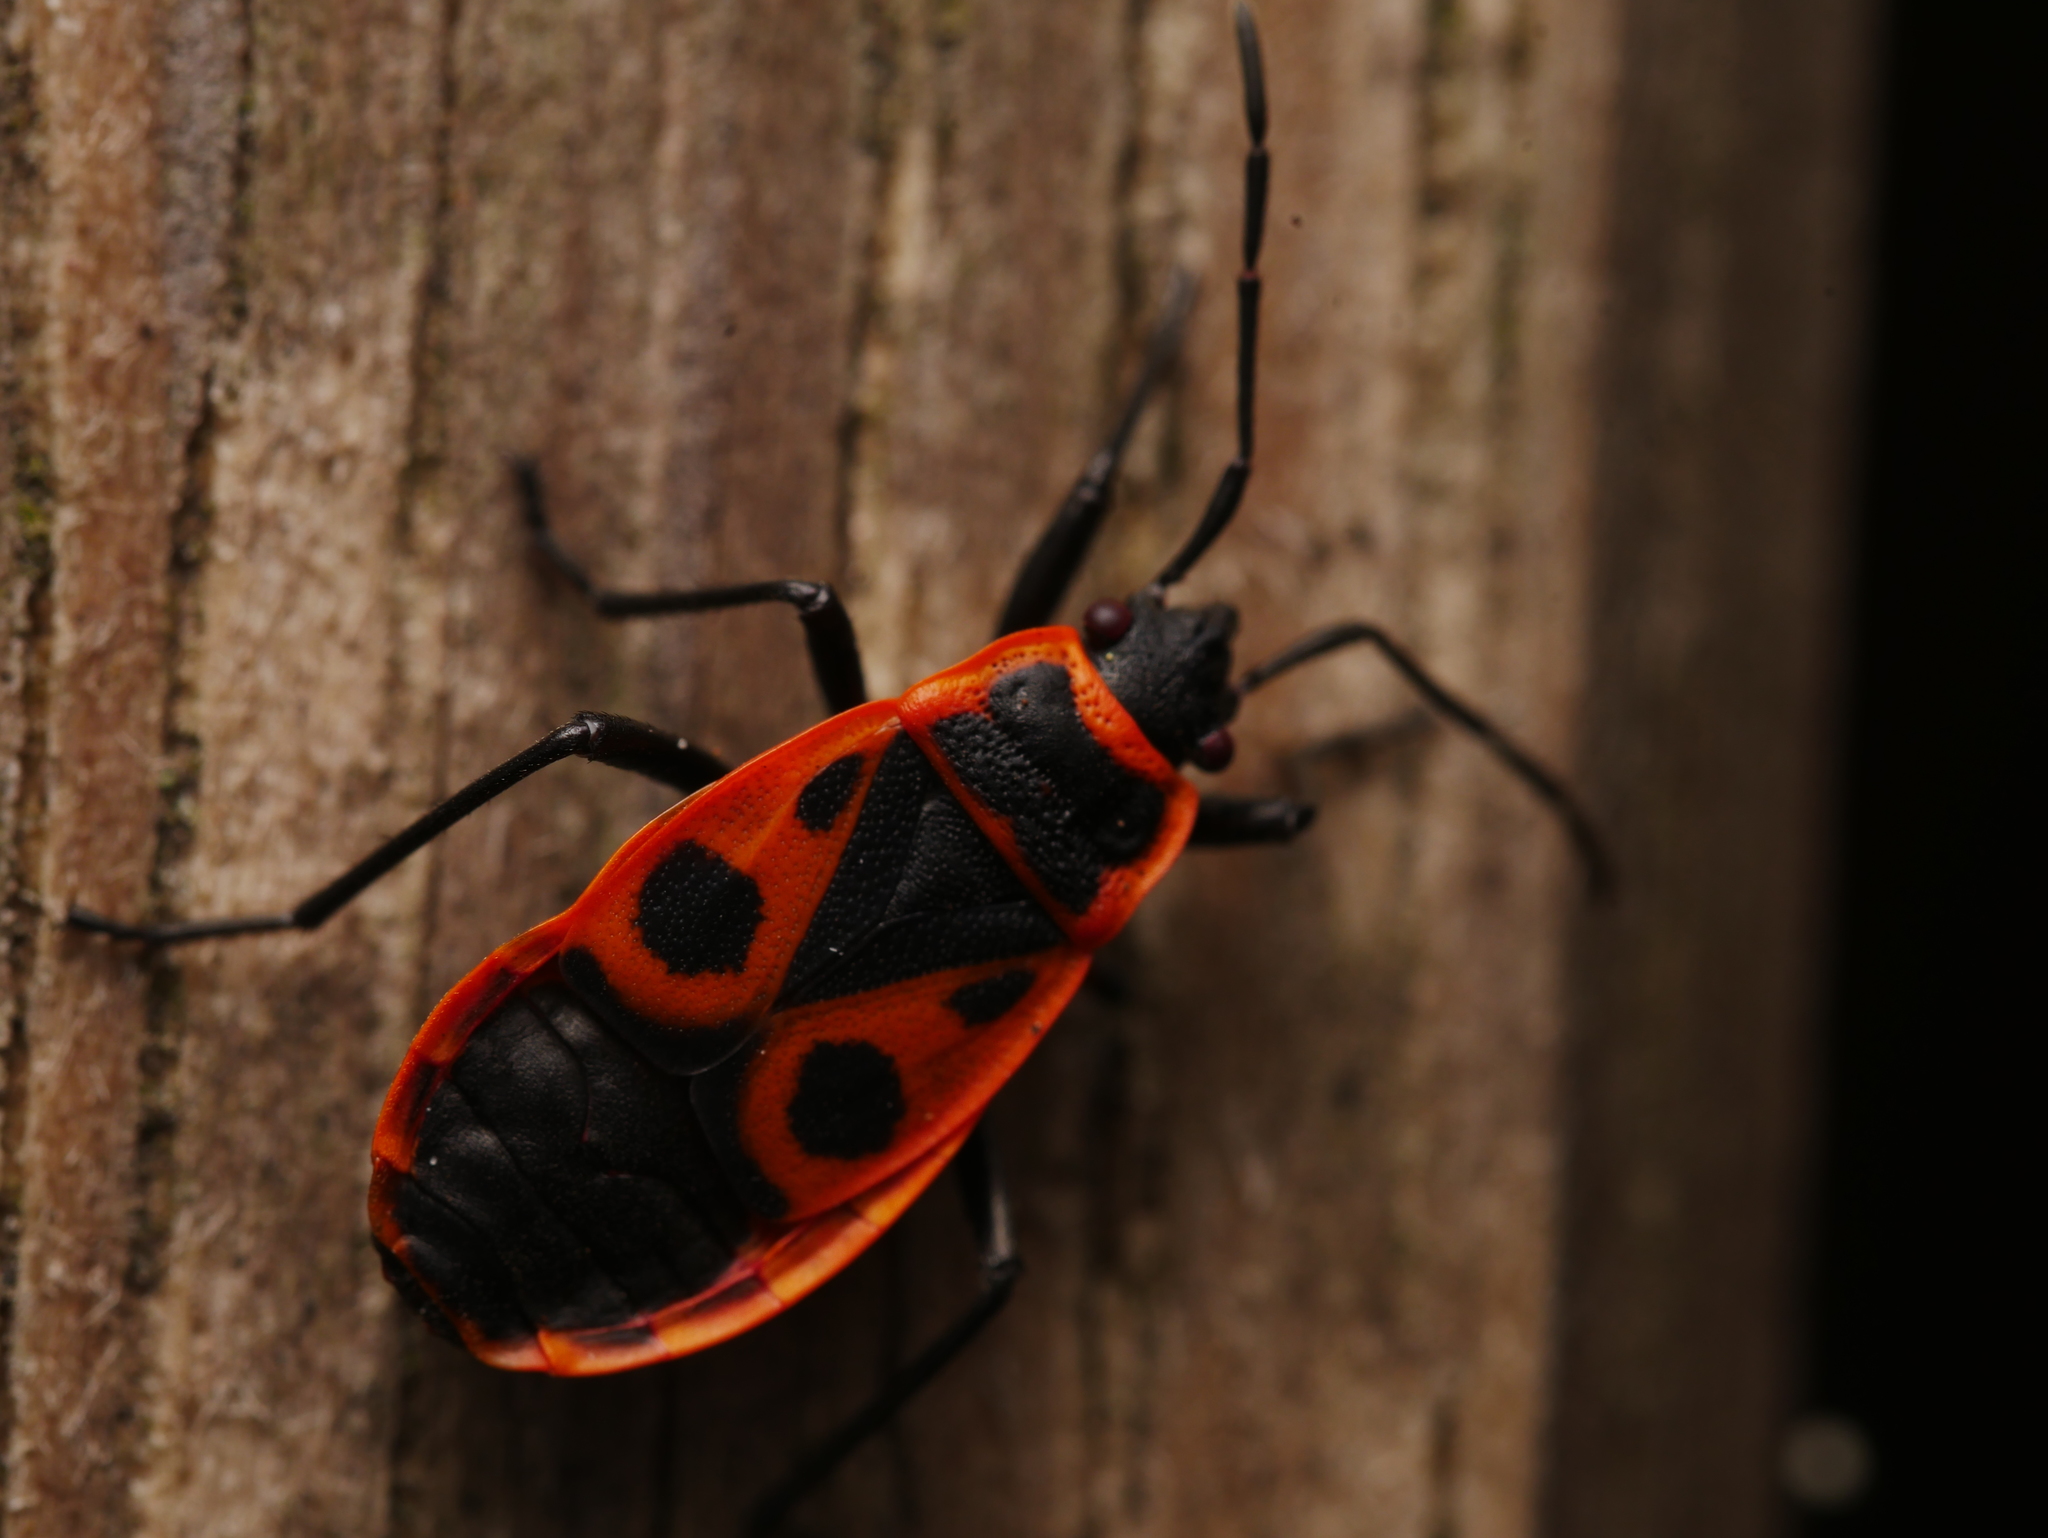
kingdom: Animalia
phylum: Arthropoda
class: Insecta
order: Hemiptera
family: Pyrrhocoridae
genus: Pyrrhocoris
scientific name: Pyrrhocoris apterus
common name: Firebug
